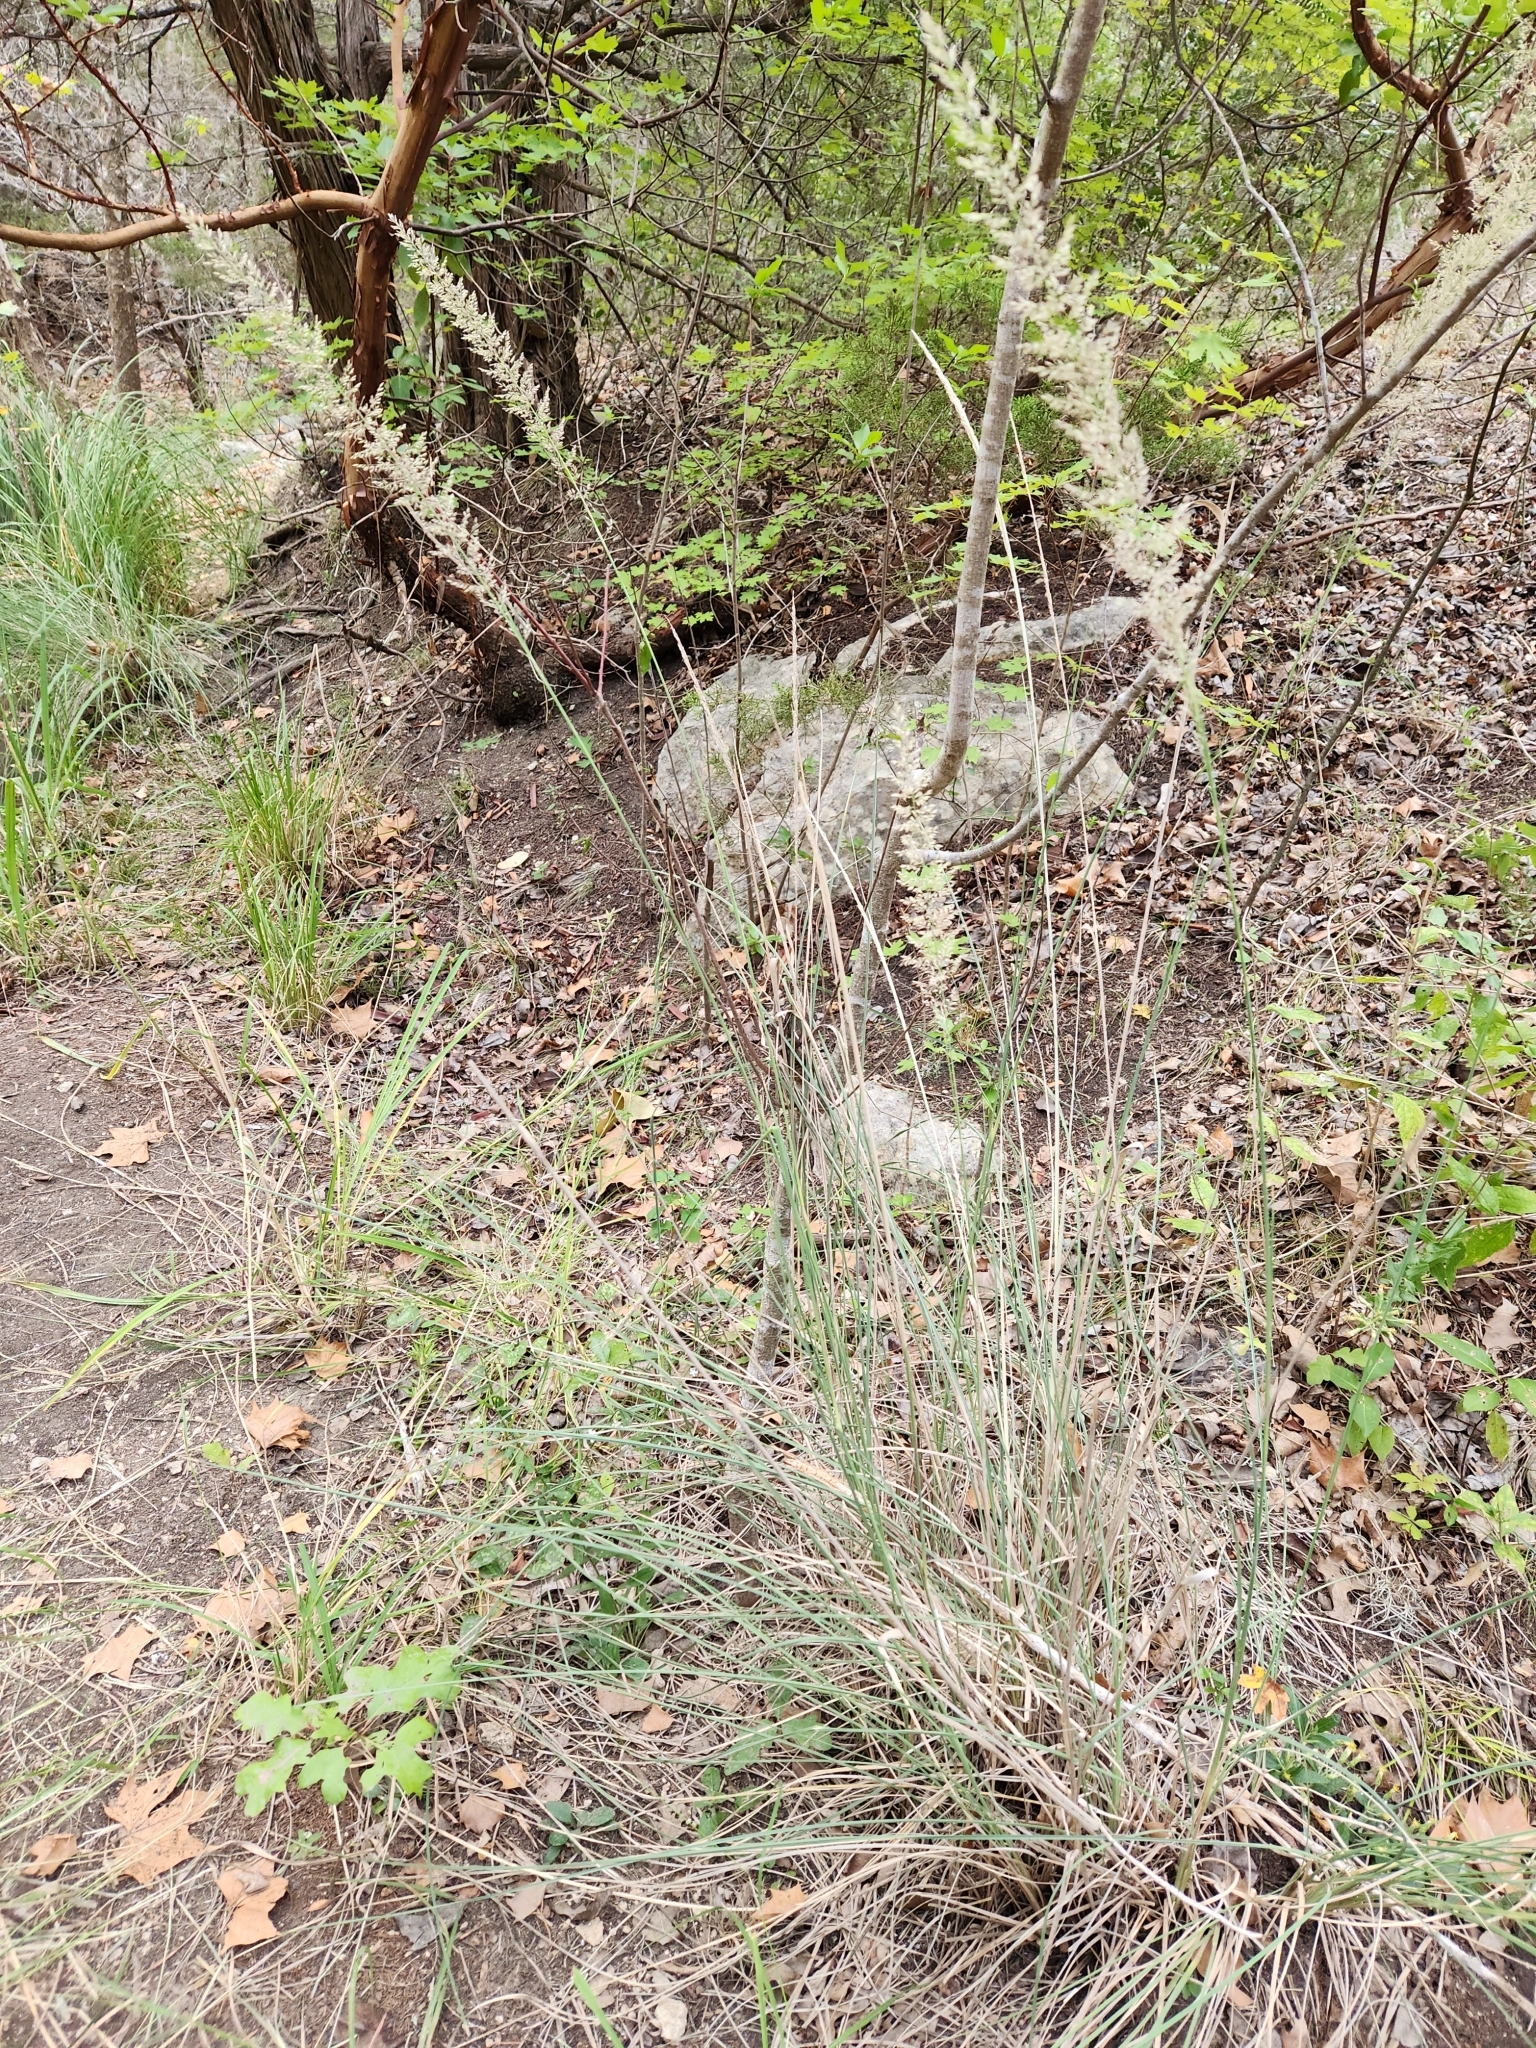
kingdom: Plantae
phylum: Tracheophyta
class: Liliopsida
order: Poales
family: Poaceae
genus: Muhlenbergia
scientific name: Muhlenbergia lindheimeri
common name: Lindheimer's muhly
